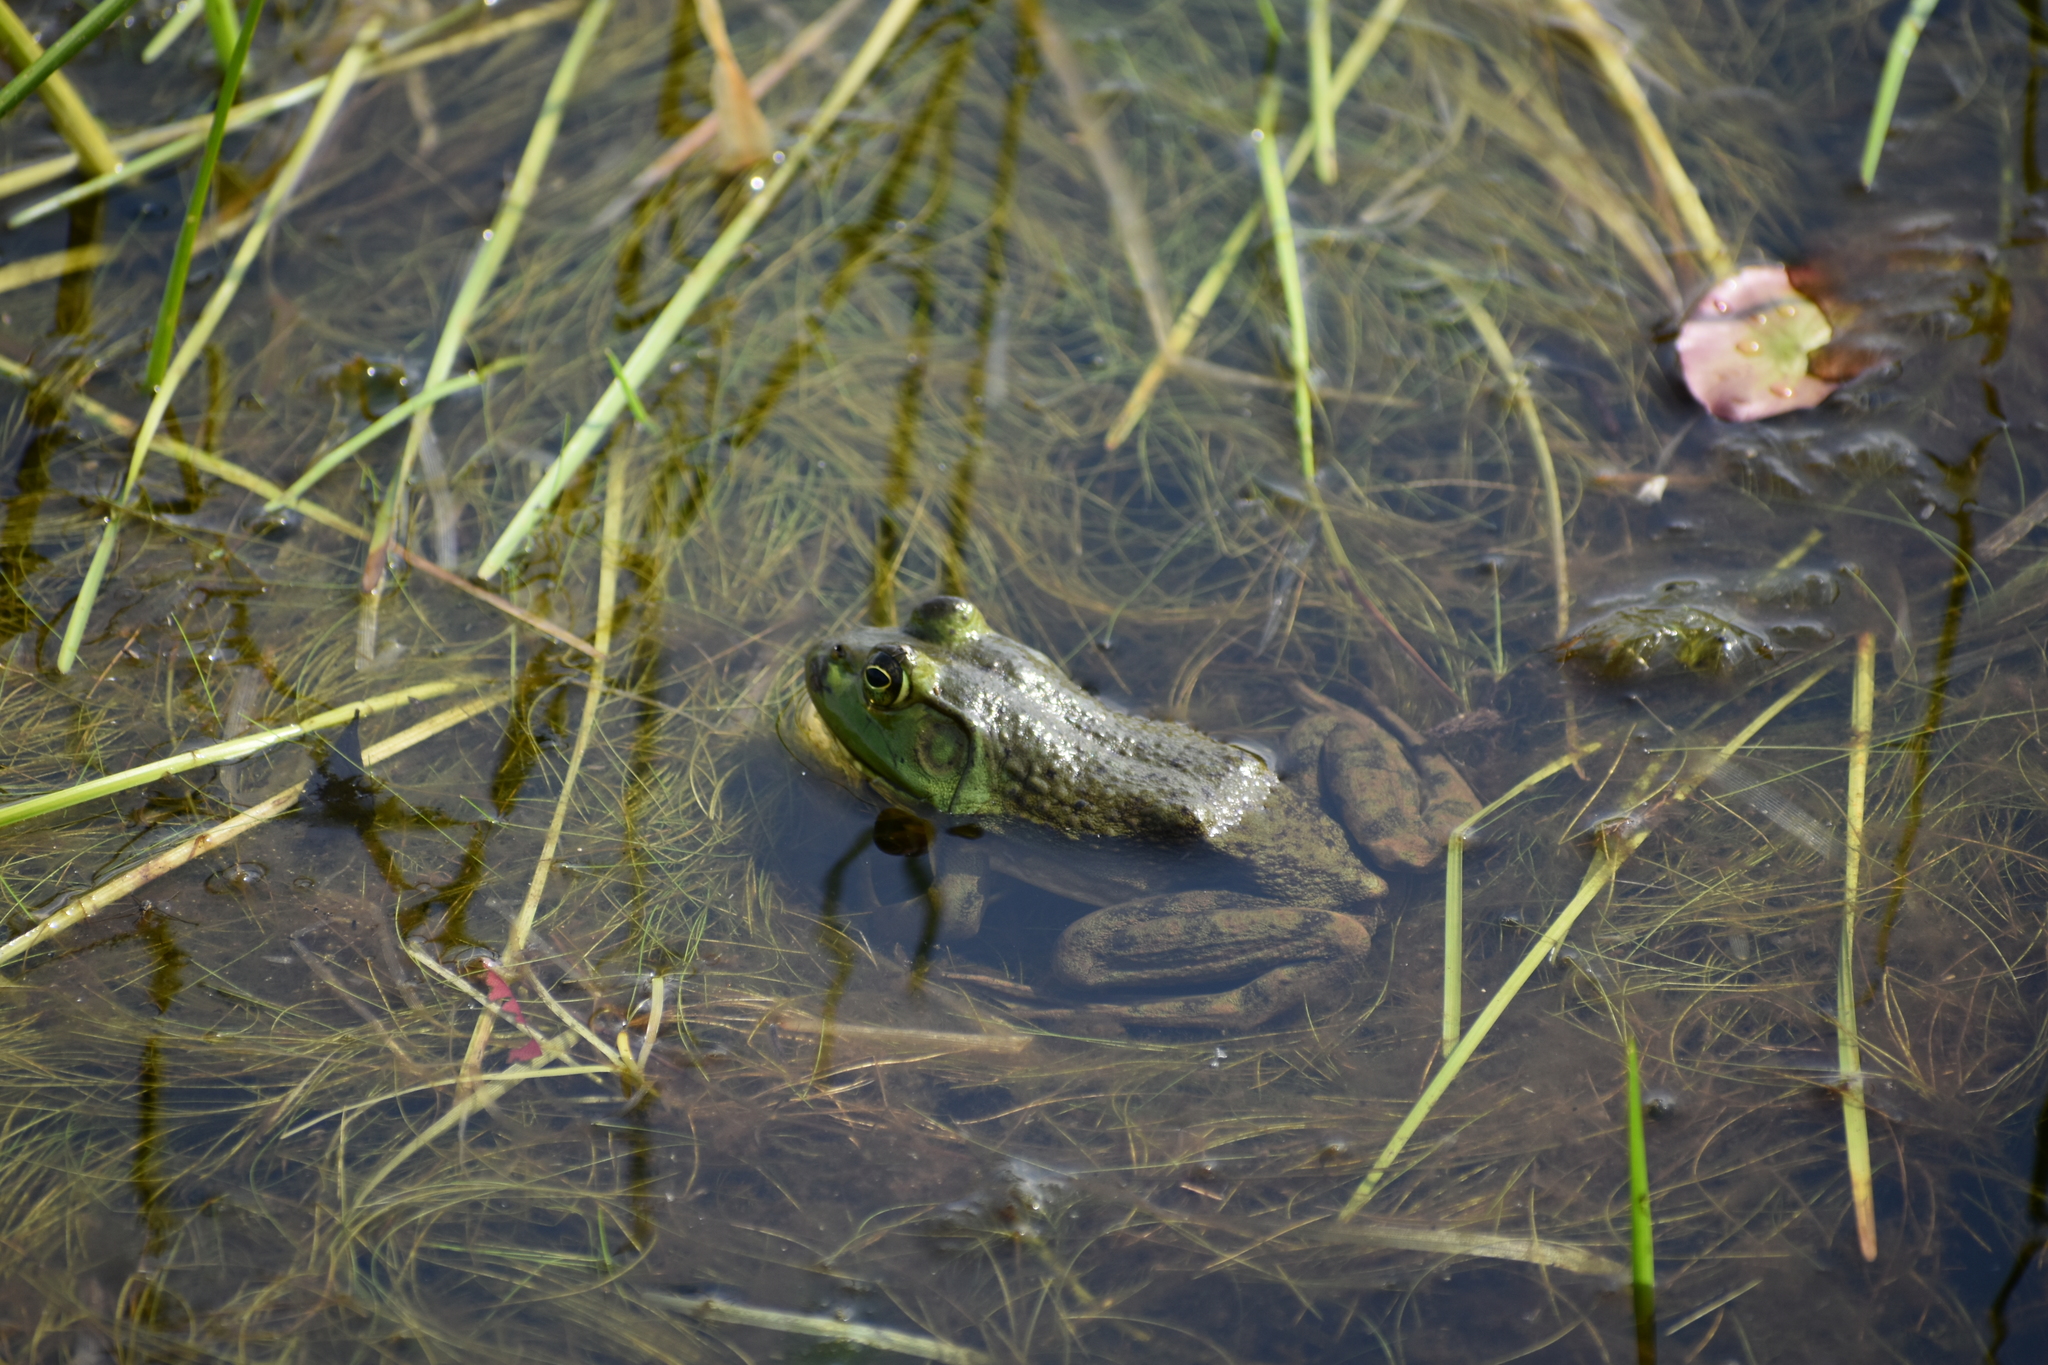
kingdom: Animalia
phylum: Chordata
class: Amphibia
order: Anura
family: Ranidae
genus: Lithobates
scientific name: Lithobates catesbeianus
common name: American bullfrog
